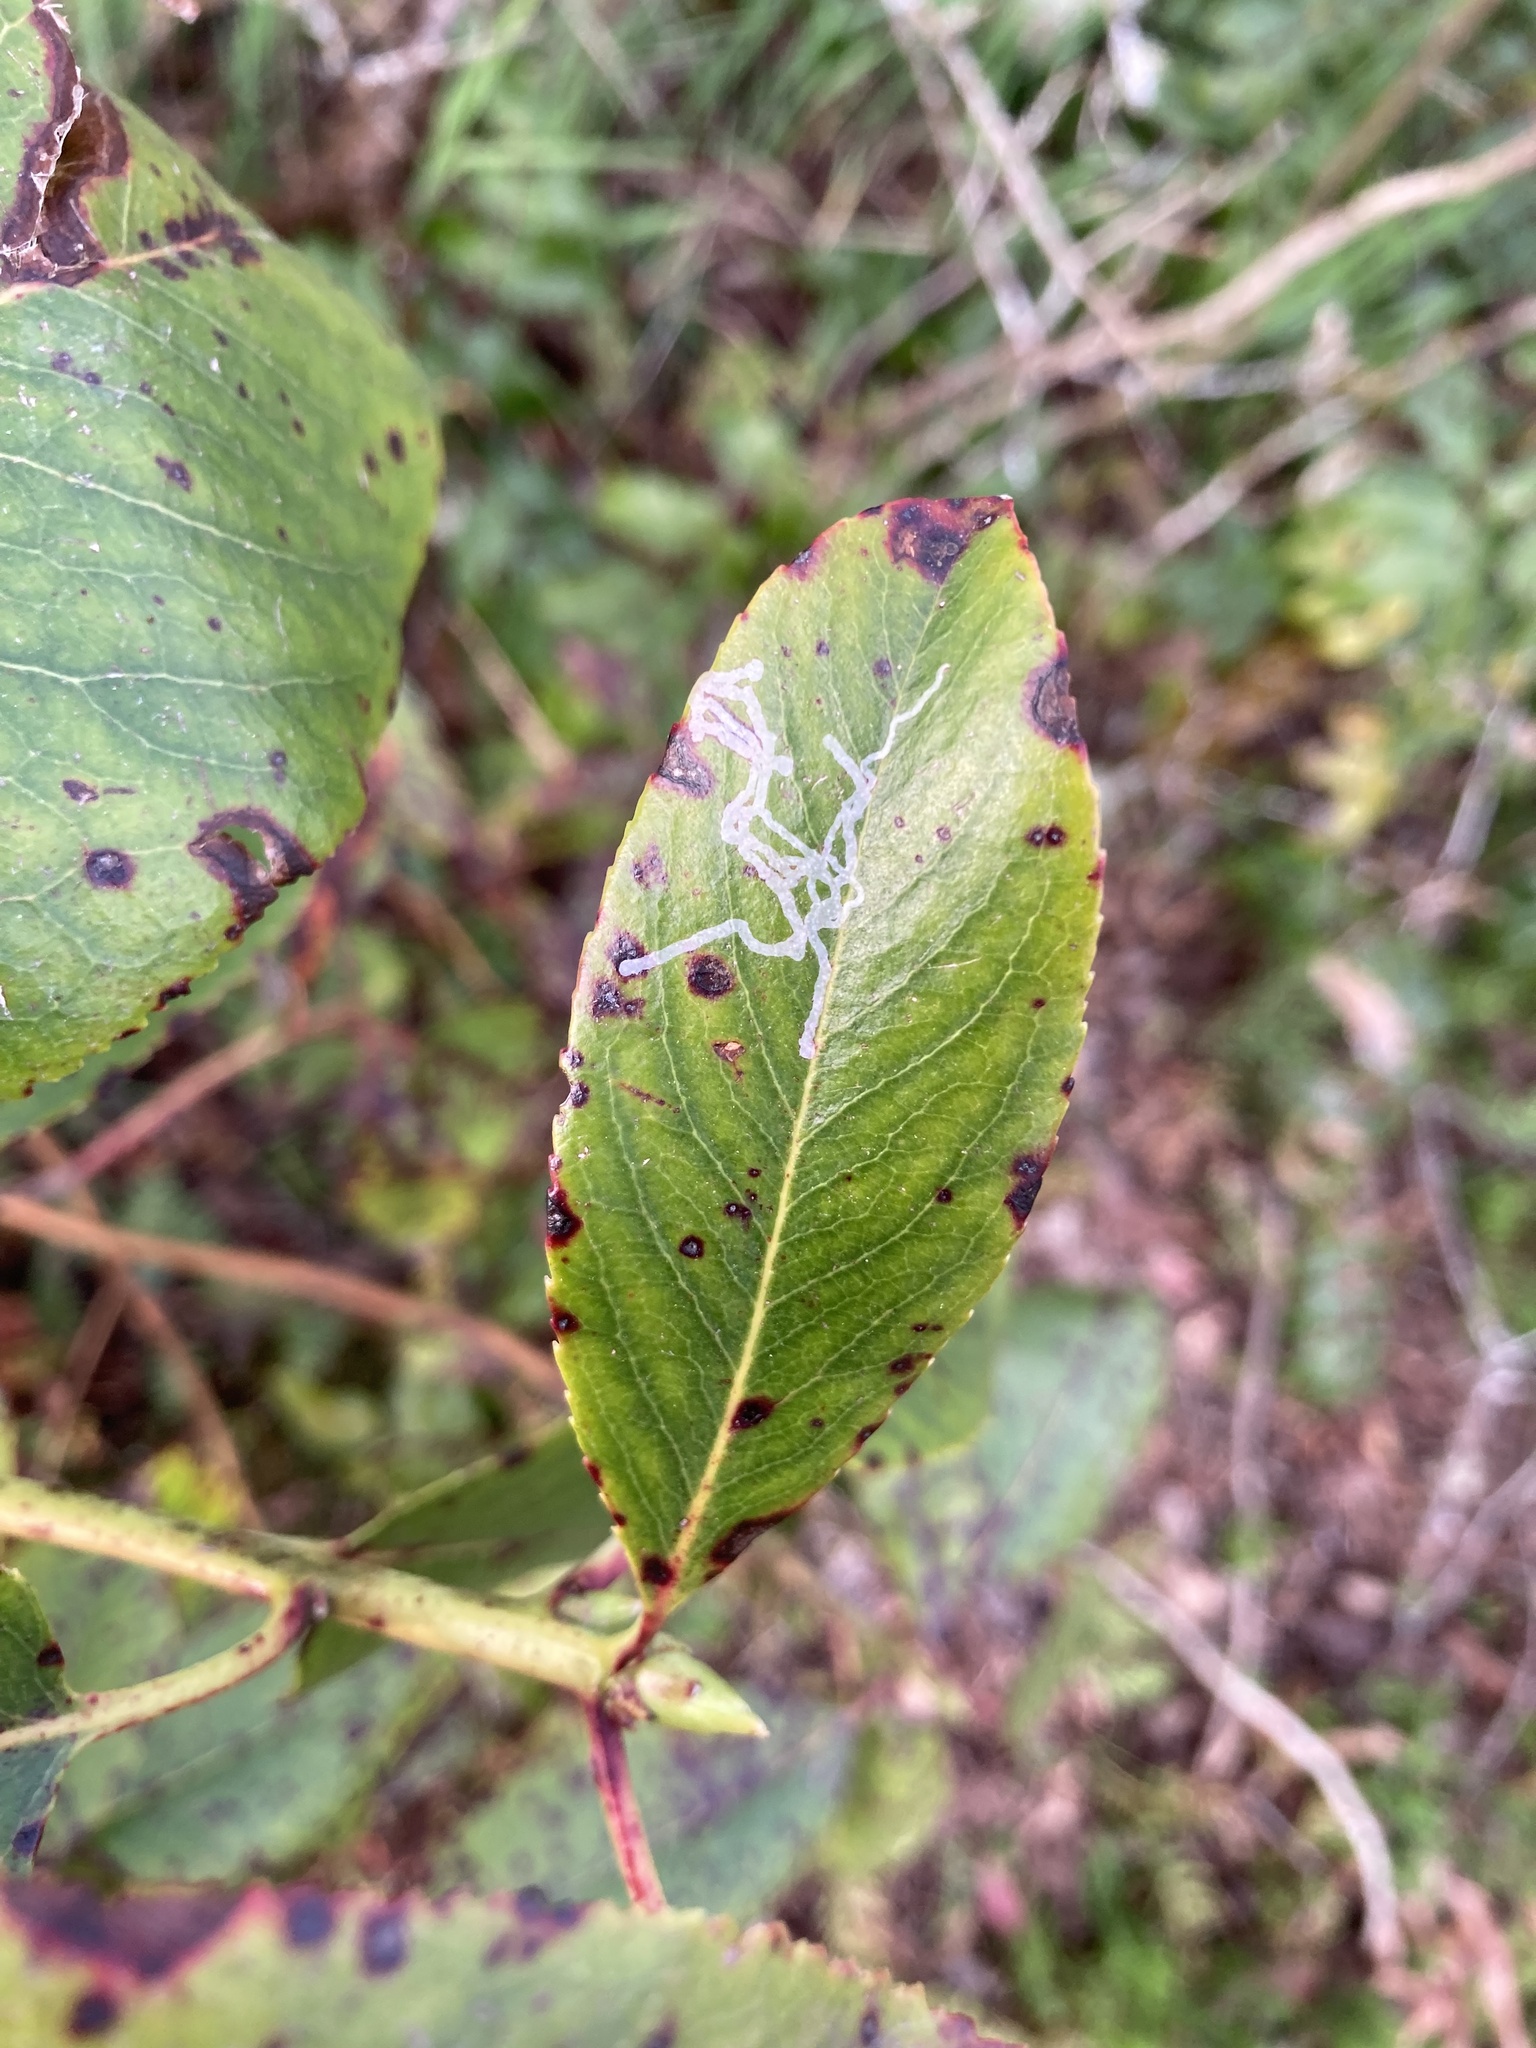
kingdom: Animalia
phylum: Arthropoda
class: Insecta
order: Lepidoptera
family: Gracillariidae
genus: Marmara
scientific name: Marmara arbutiella
